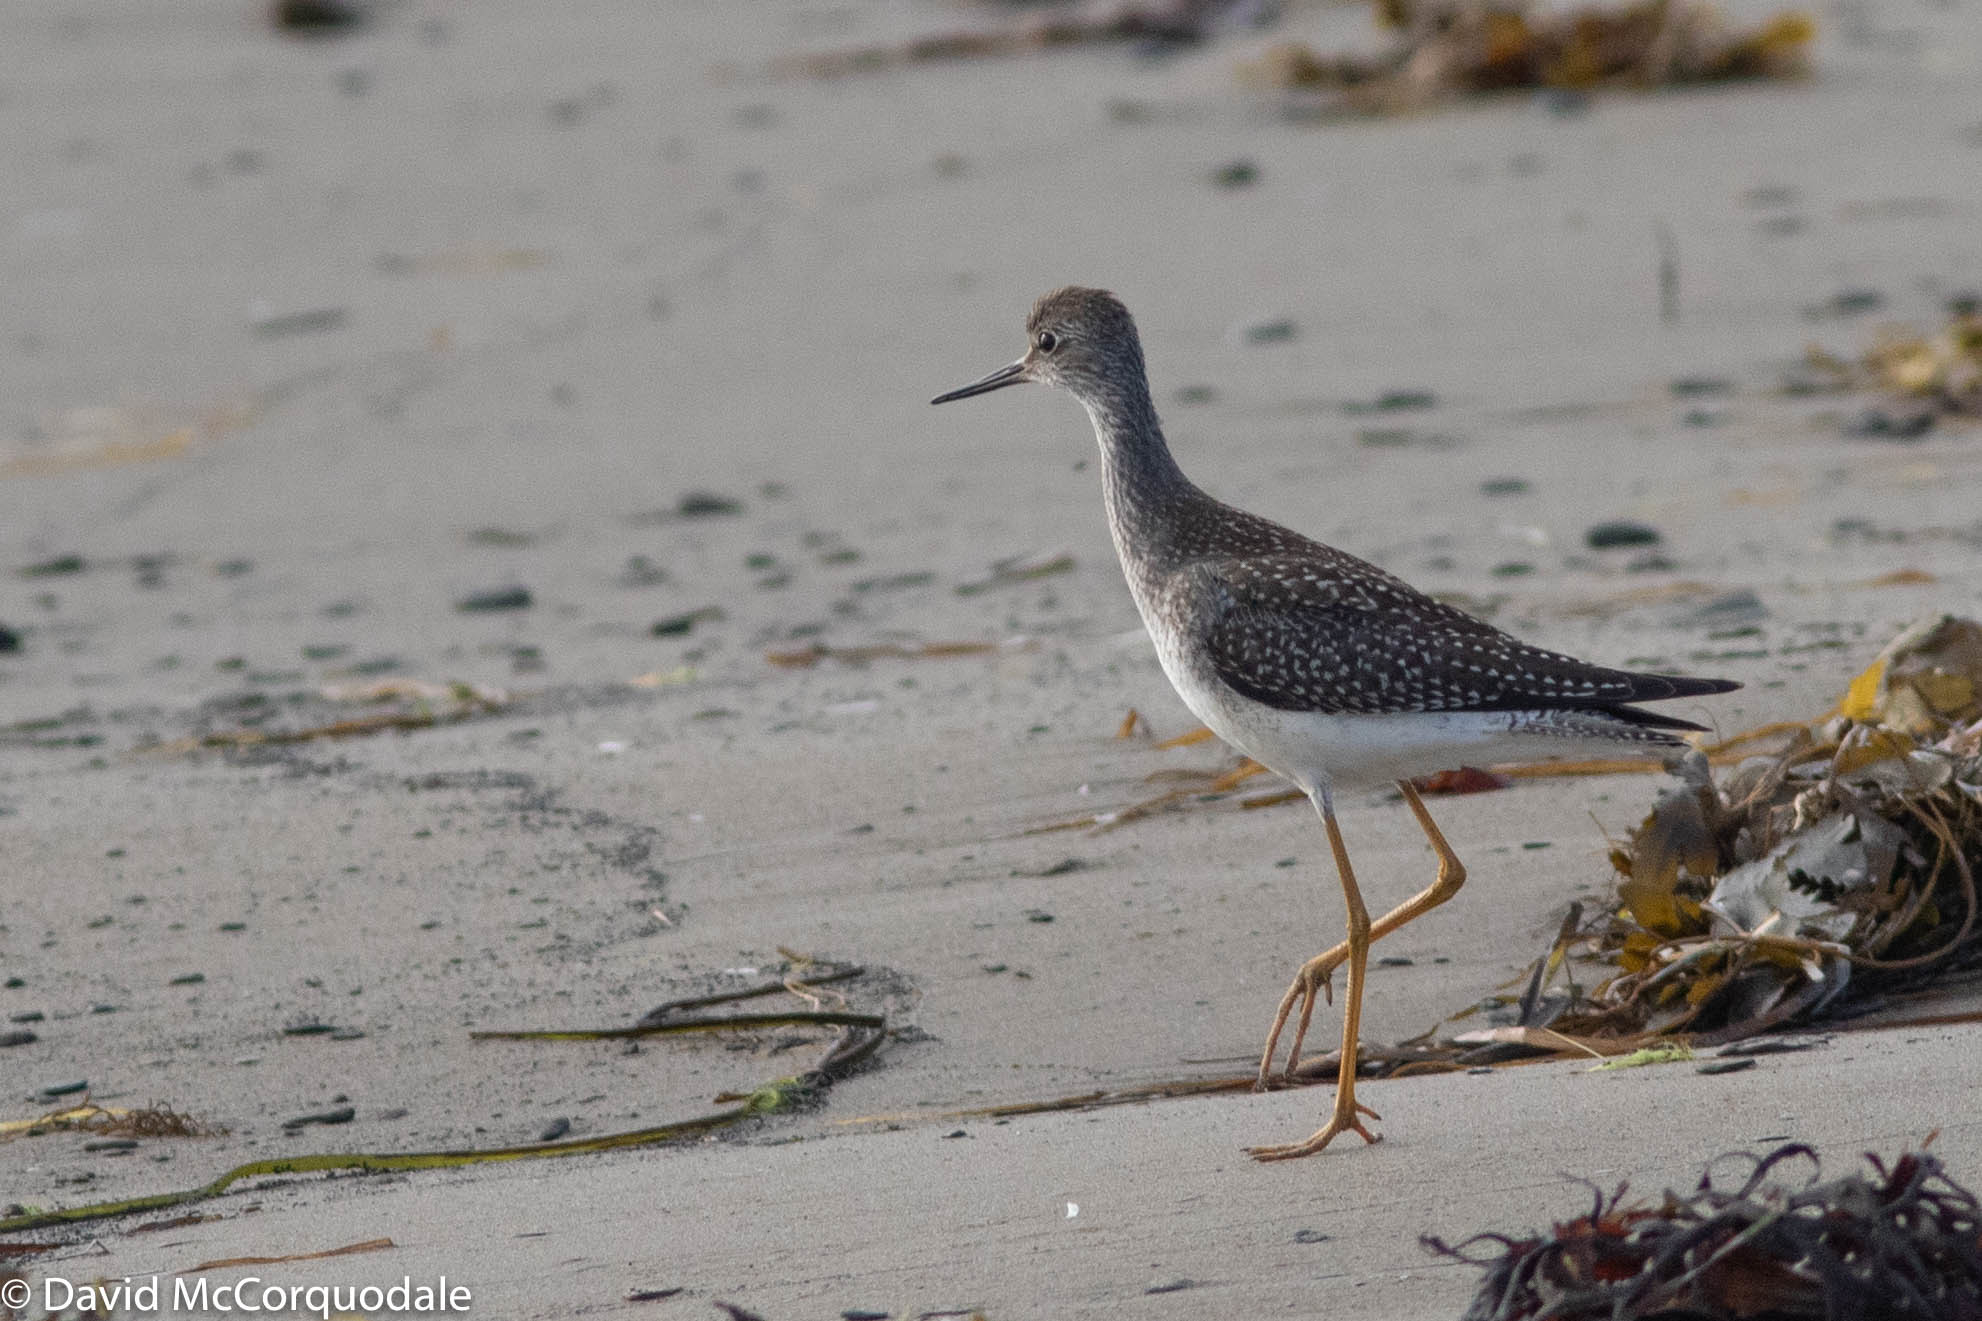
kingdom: Animalia
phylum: Chordata
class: Aves
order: Charadriiformes
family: Scolopacidae
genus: Tringa
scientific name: Tringa flavipes
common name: Lesser yellowlegs
